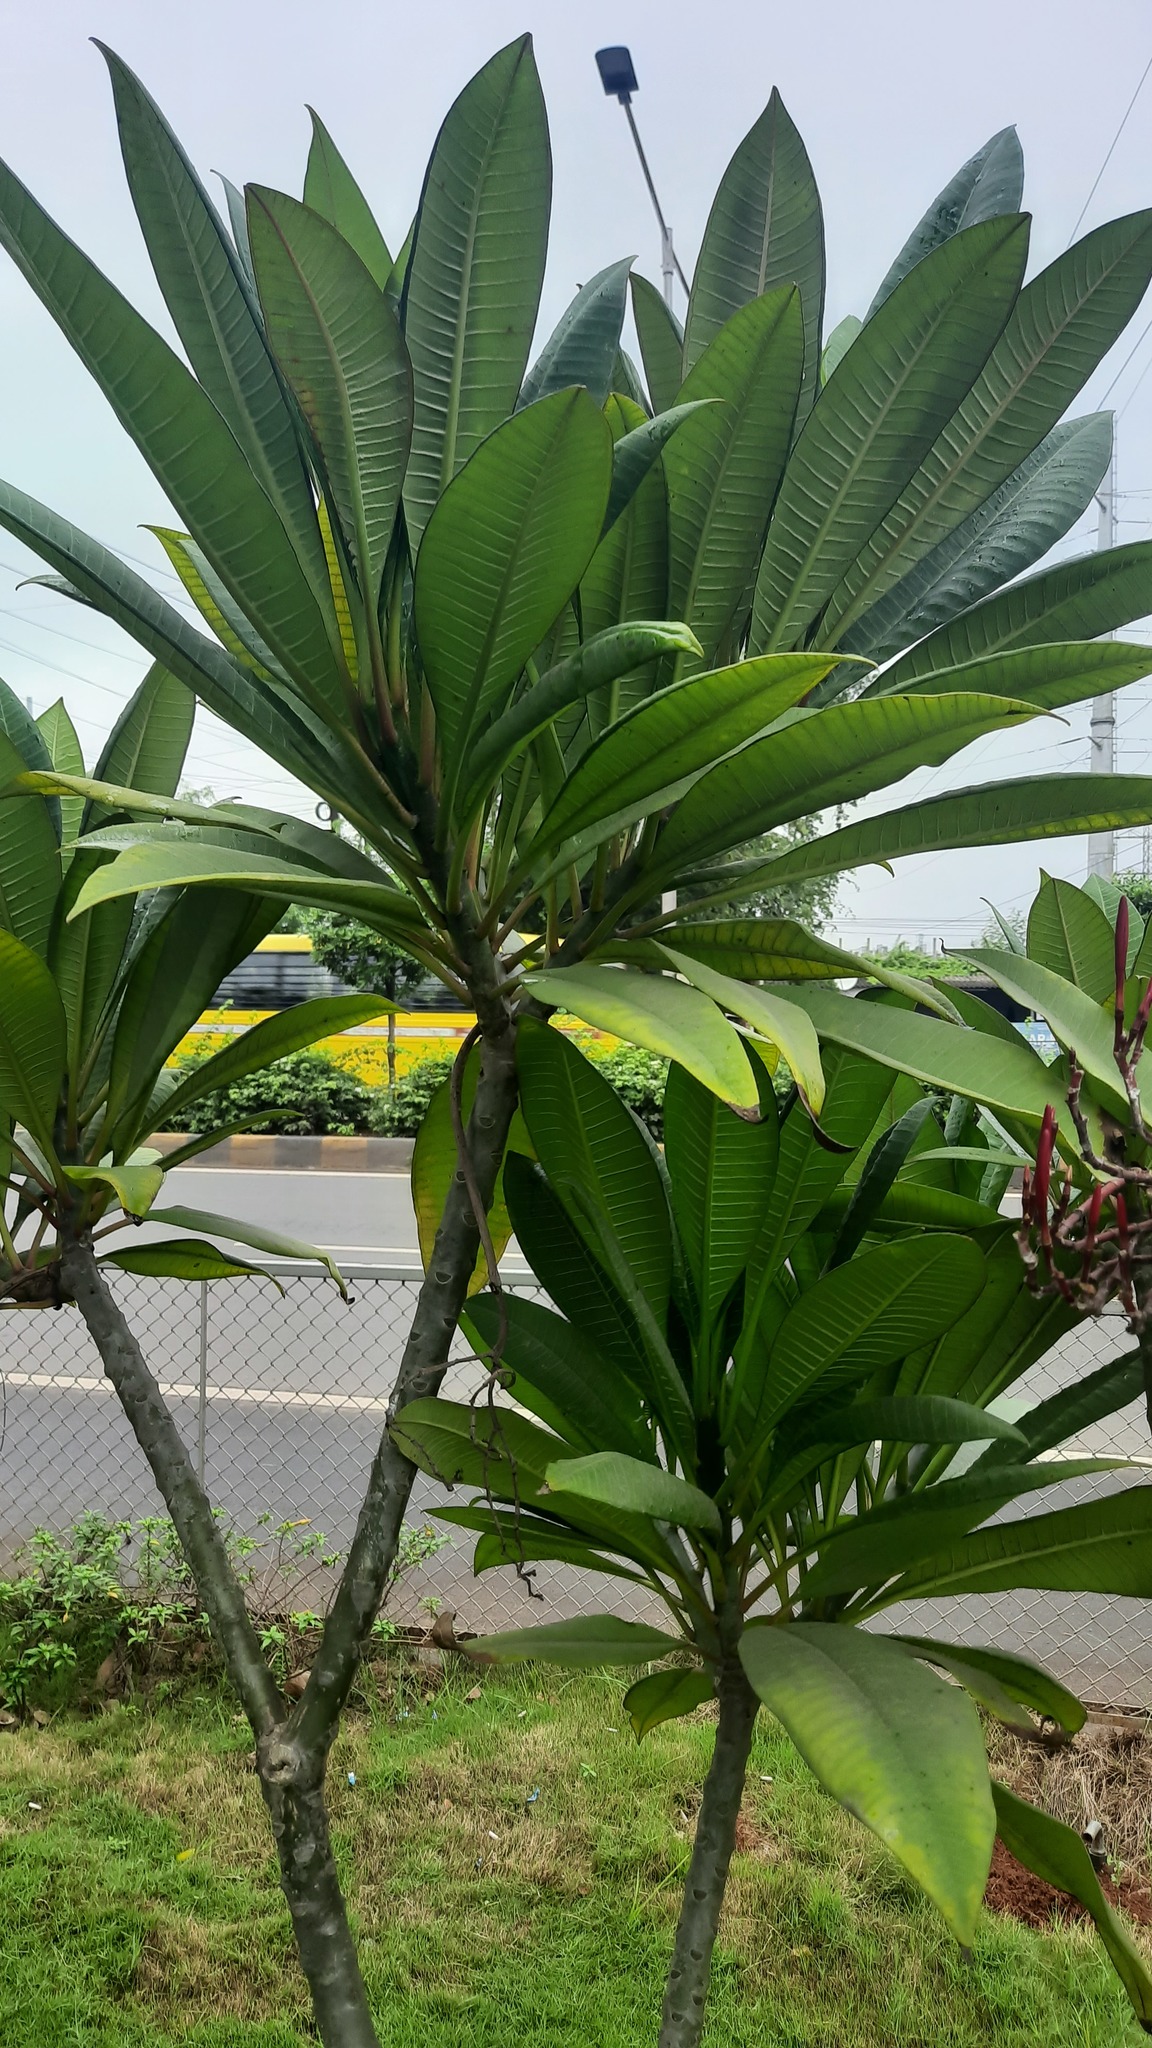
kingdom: Plantae
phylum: Tracheophyta
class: Magnoliopsida
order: Gentianales
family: Apocynaceae
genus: Plumeria
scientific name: Plumeria rubra
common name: Pagoda-tree
